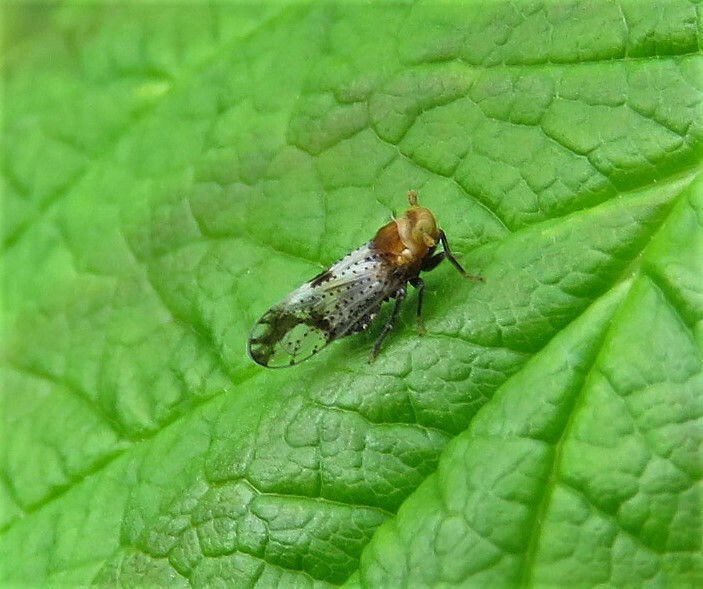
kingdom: Animalia
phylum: Arthropoda
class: Insecta
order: Hemiptera
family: Delphacidae
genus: Conomelus
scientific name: Conomelus anceps
